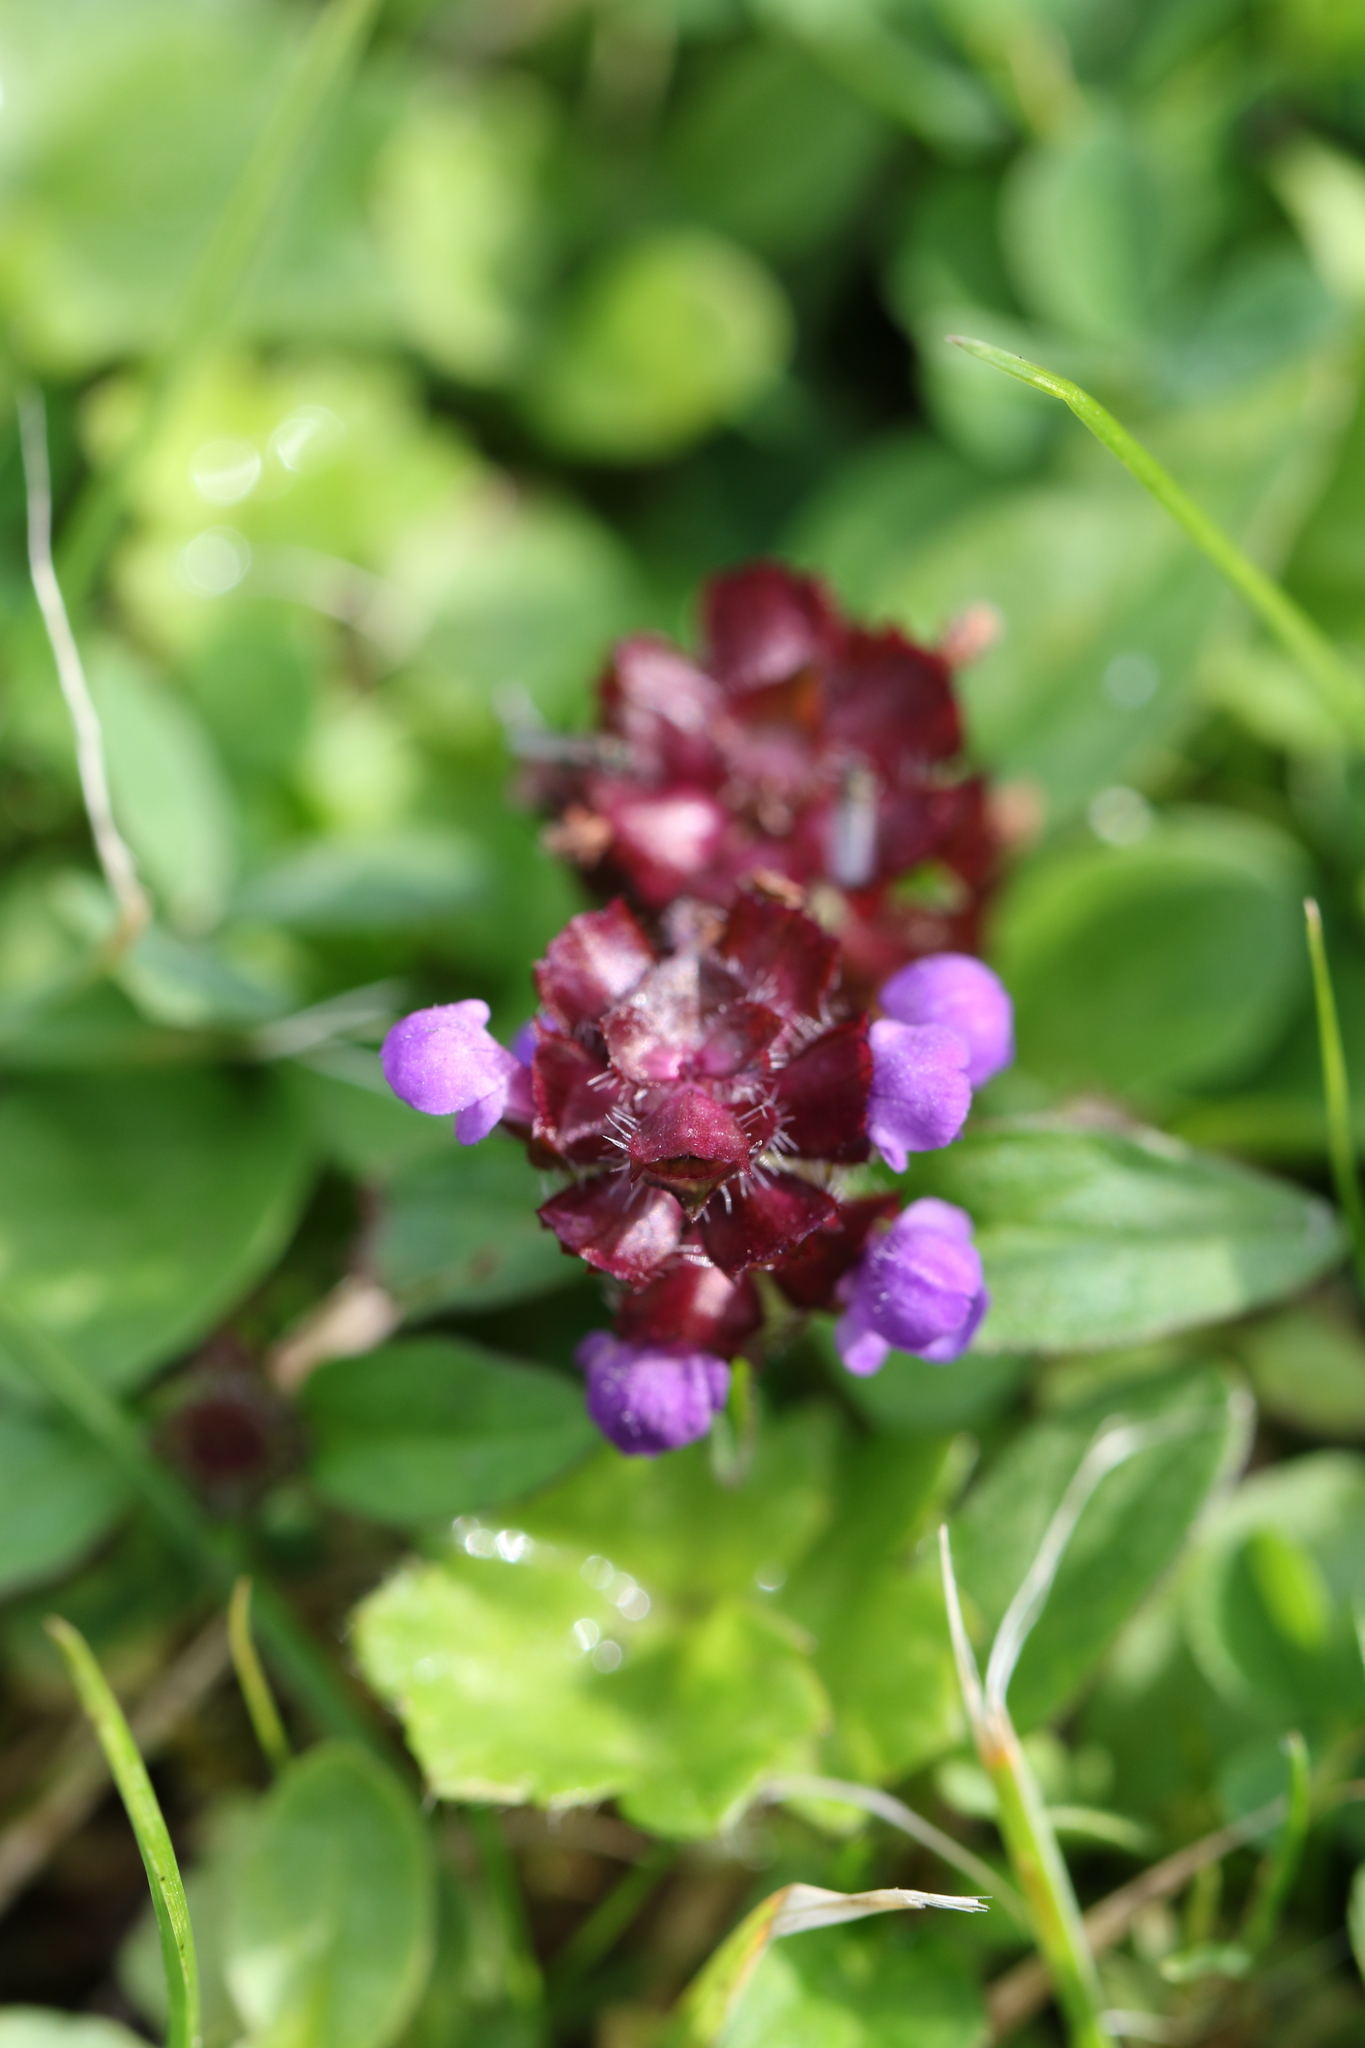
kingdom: Plantae
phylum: Tracheophyta
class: Magnoliopsida
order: Lamiales
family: Lamiaceae
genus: Prunella
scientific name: Prunella vulgaris
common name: Heal-all
